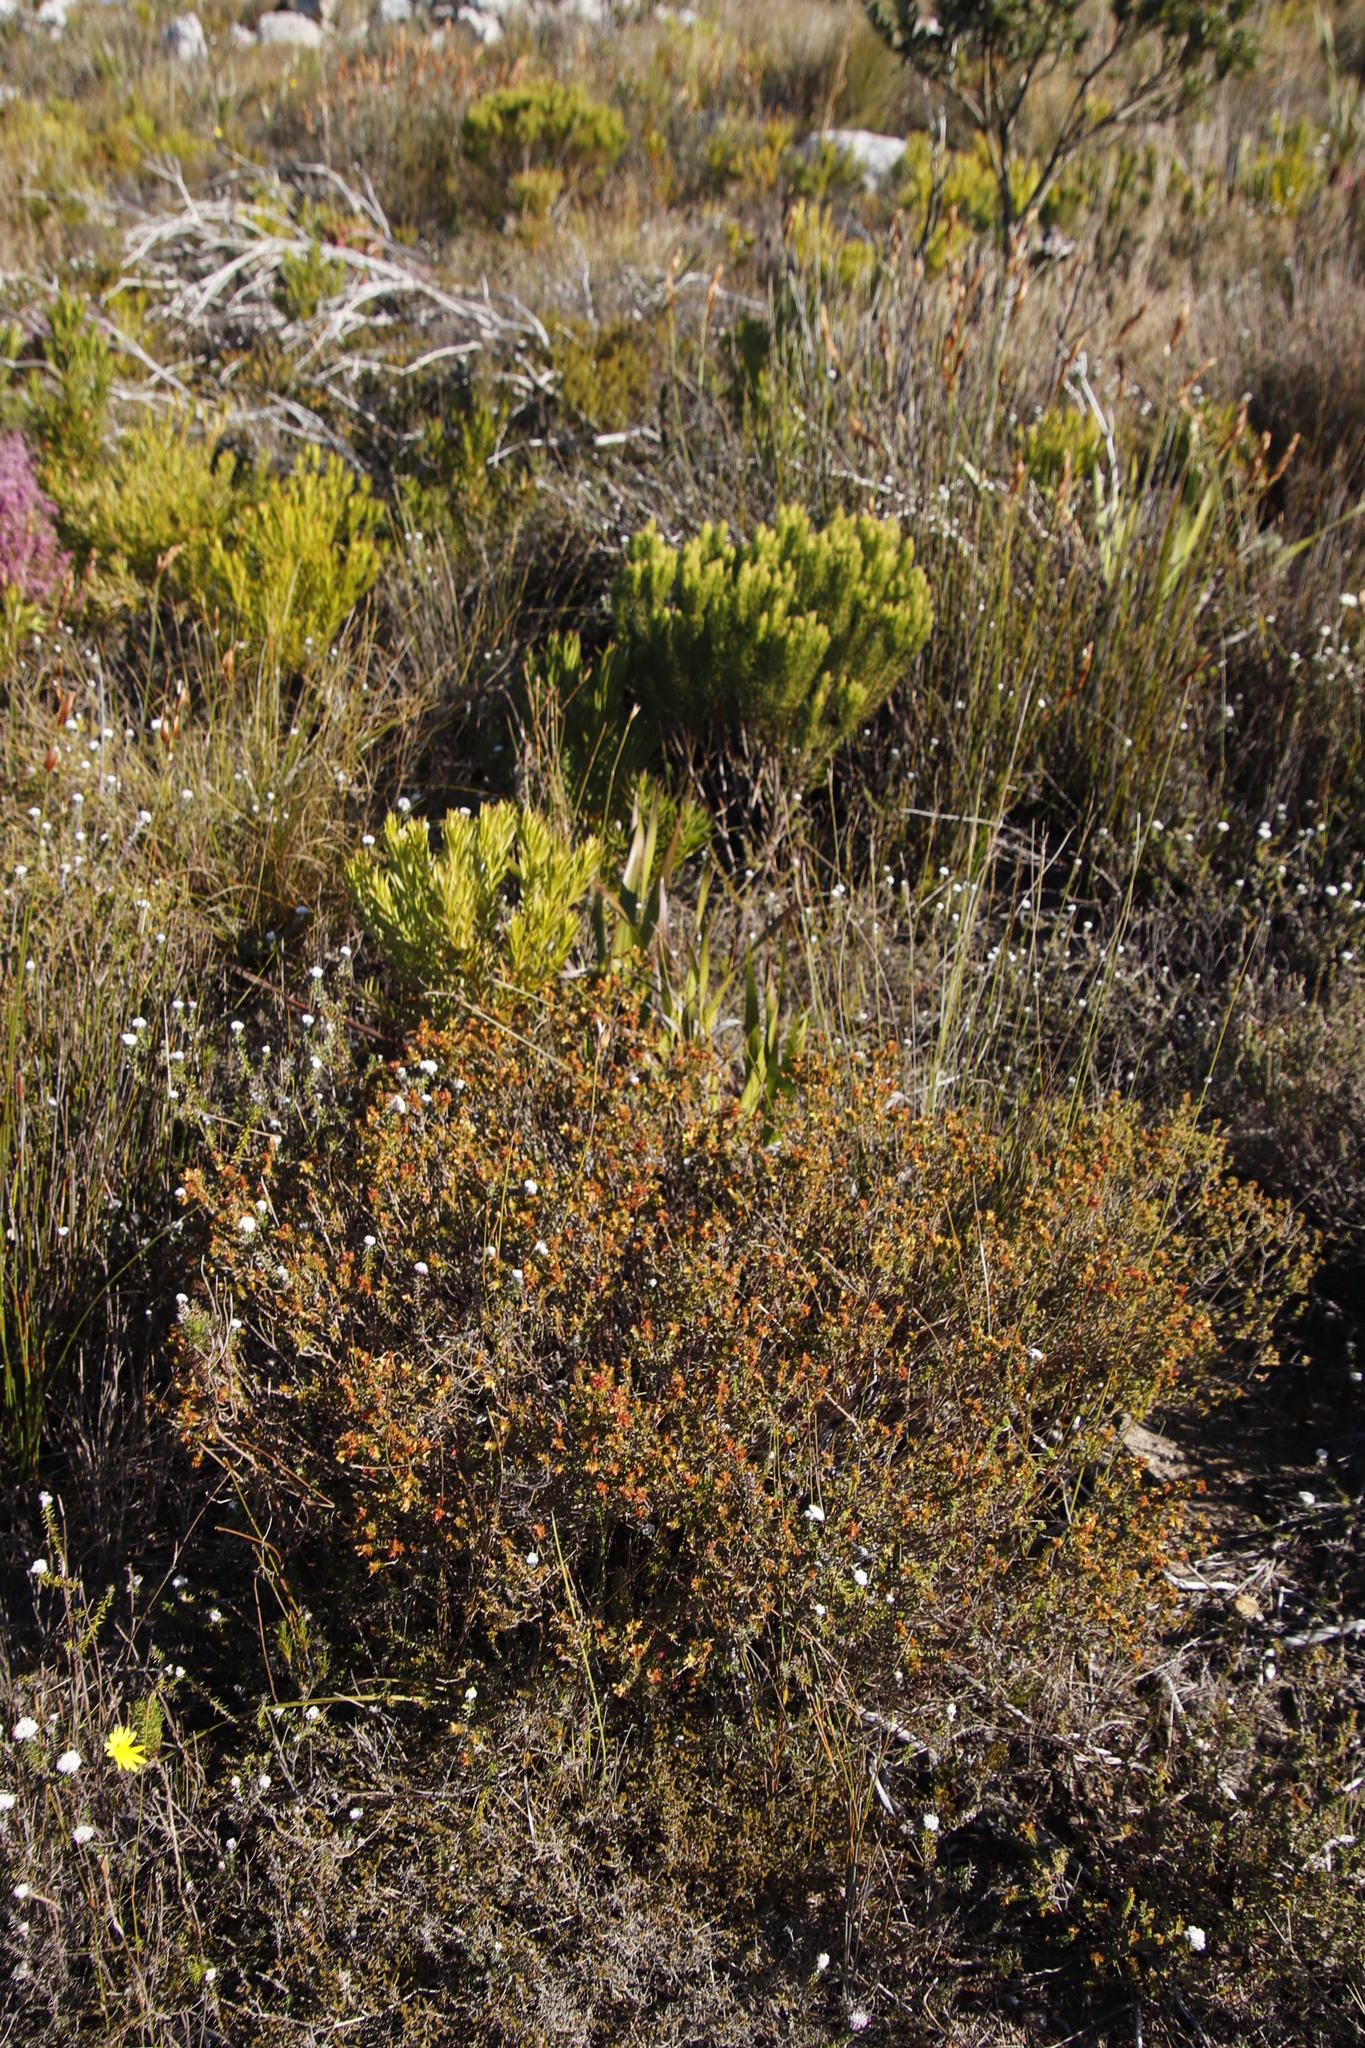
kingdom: Plantae
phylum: Tracheophyta
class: Magnoliopsida
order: Myrtales
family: Penaeaceae
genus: Penaea
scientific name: Penaea mucronata
